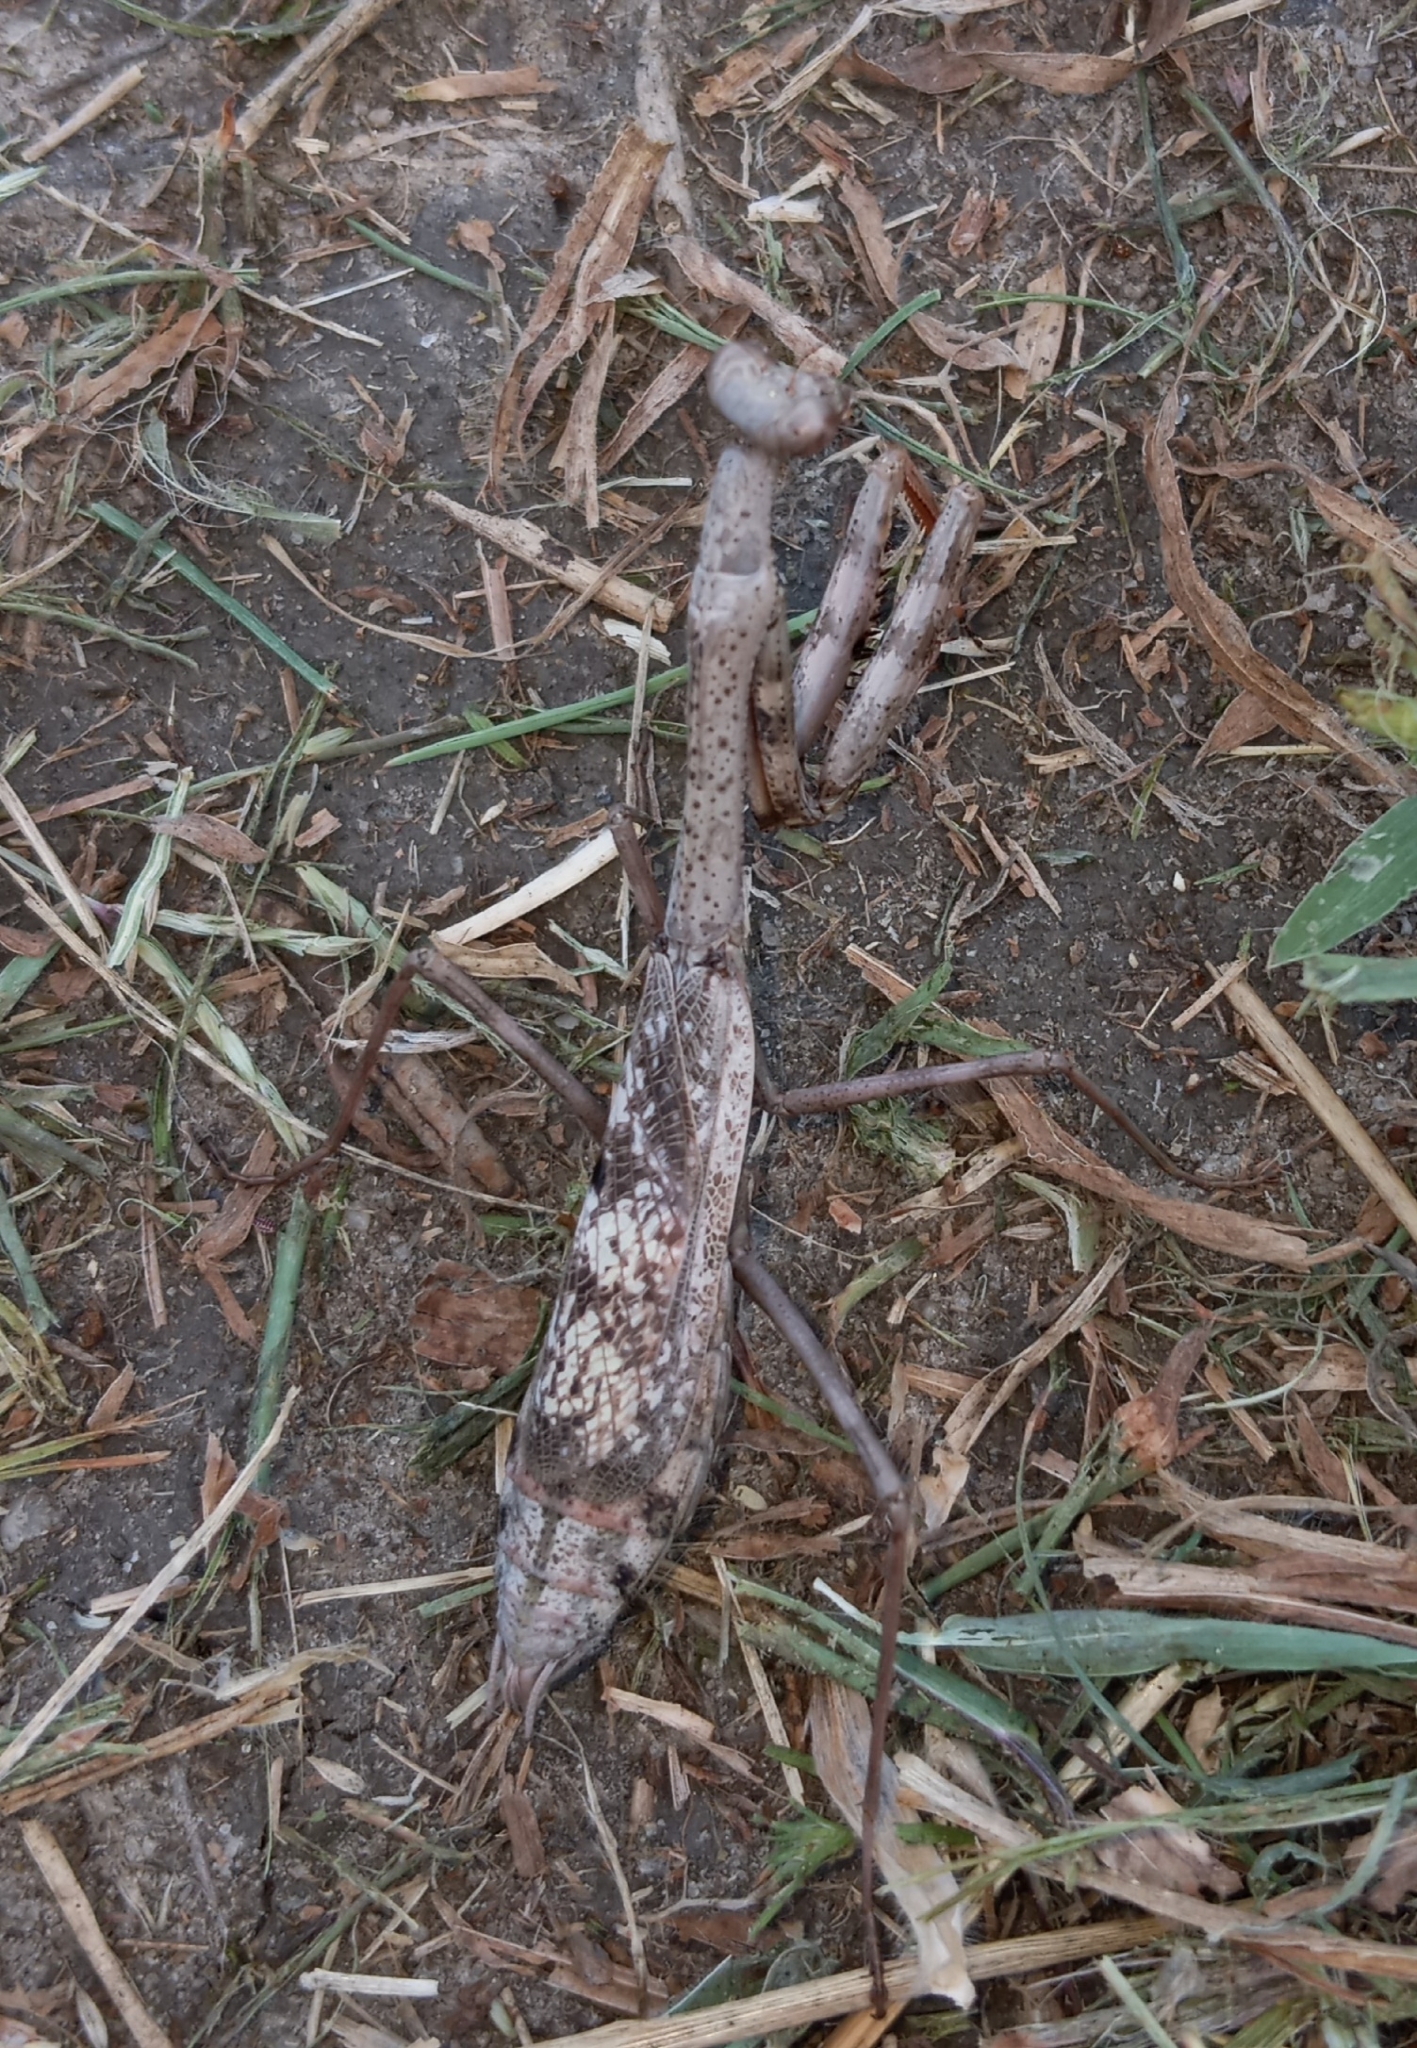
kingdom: Animalia
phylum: Arthropoda
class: Insecta
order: Mantodea
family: Mantidae
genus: Stagmomantis
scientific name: Stagmomantis carolina
